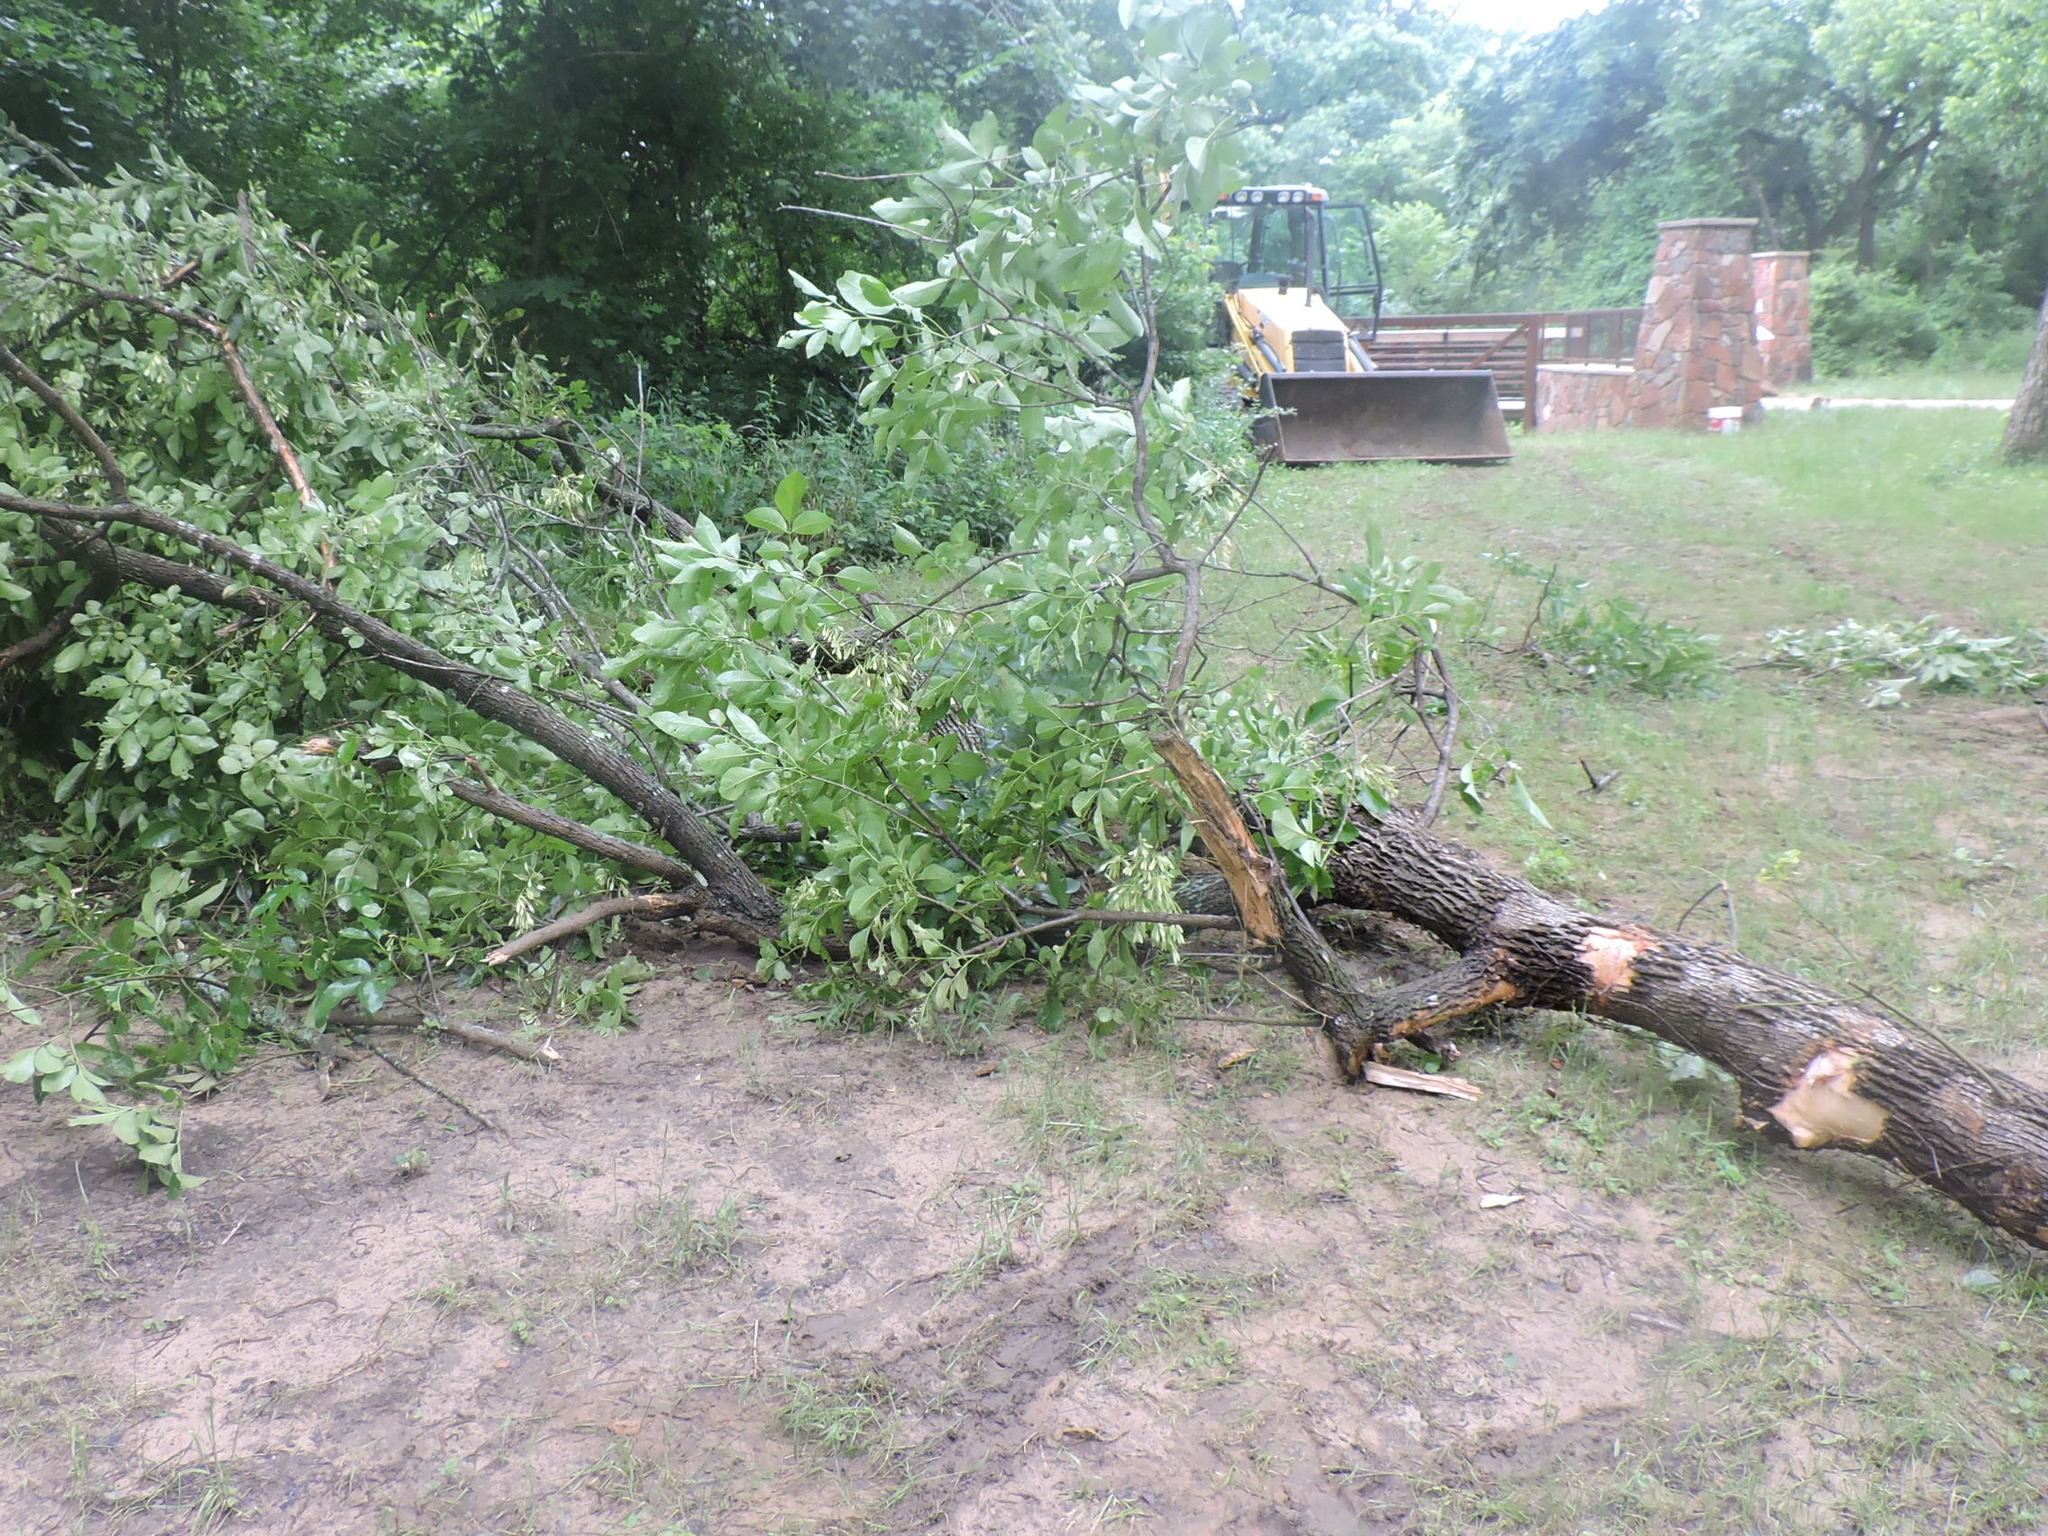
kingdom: Plantae
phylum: Tracheophyta
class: Magnoliopsida
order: Lamiales
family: Oleaceae
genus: Fraxinus
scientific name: Fraxinus pennsylvanica
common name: Green ash
